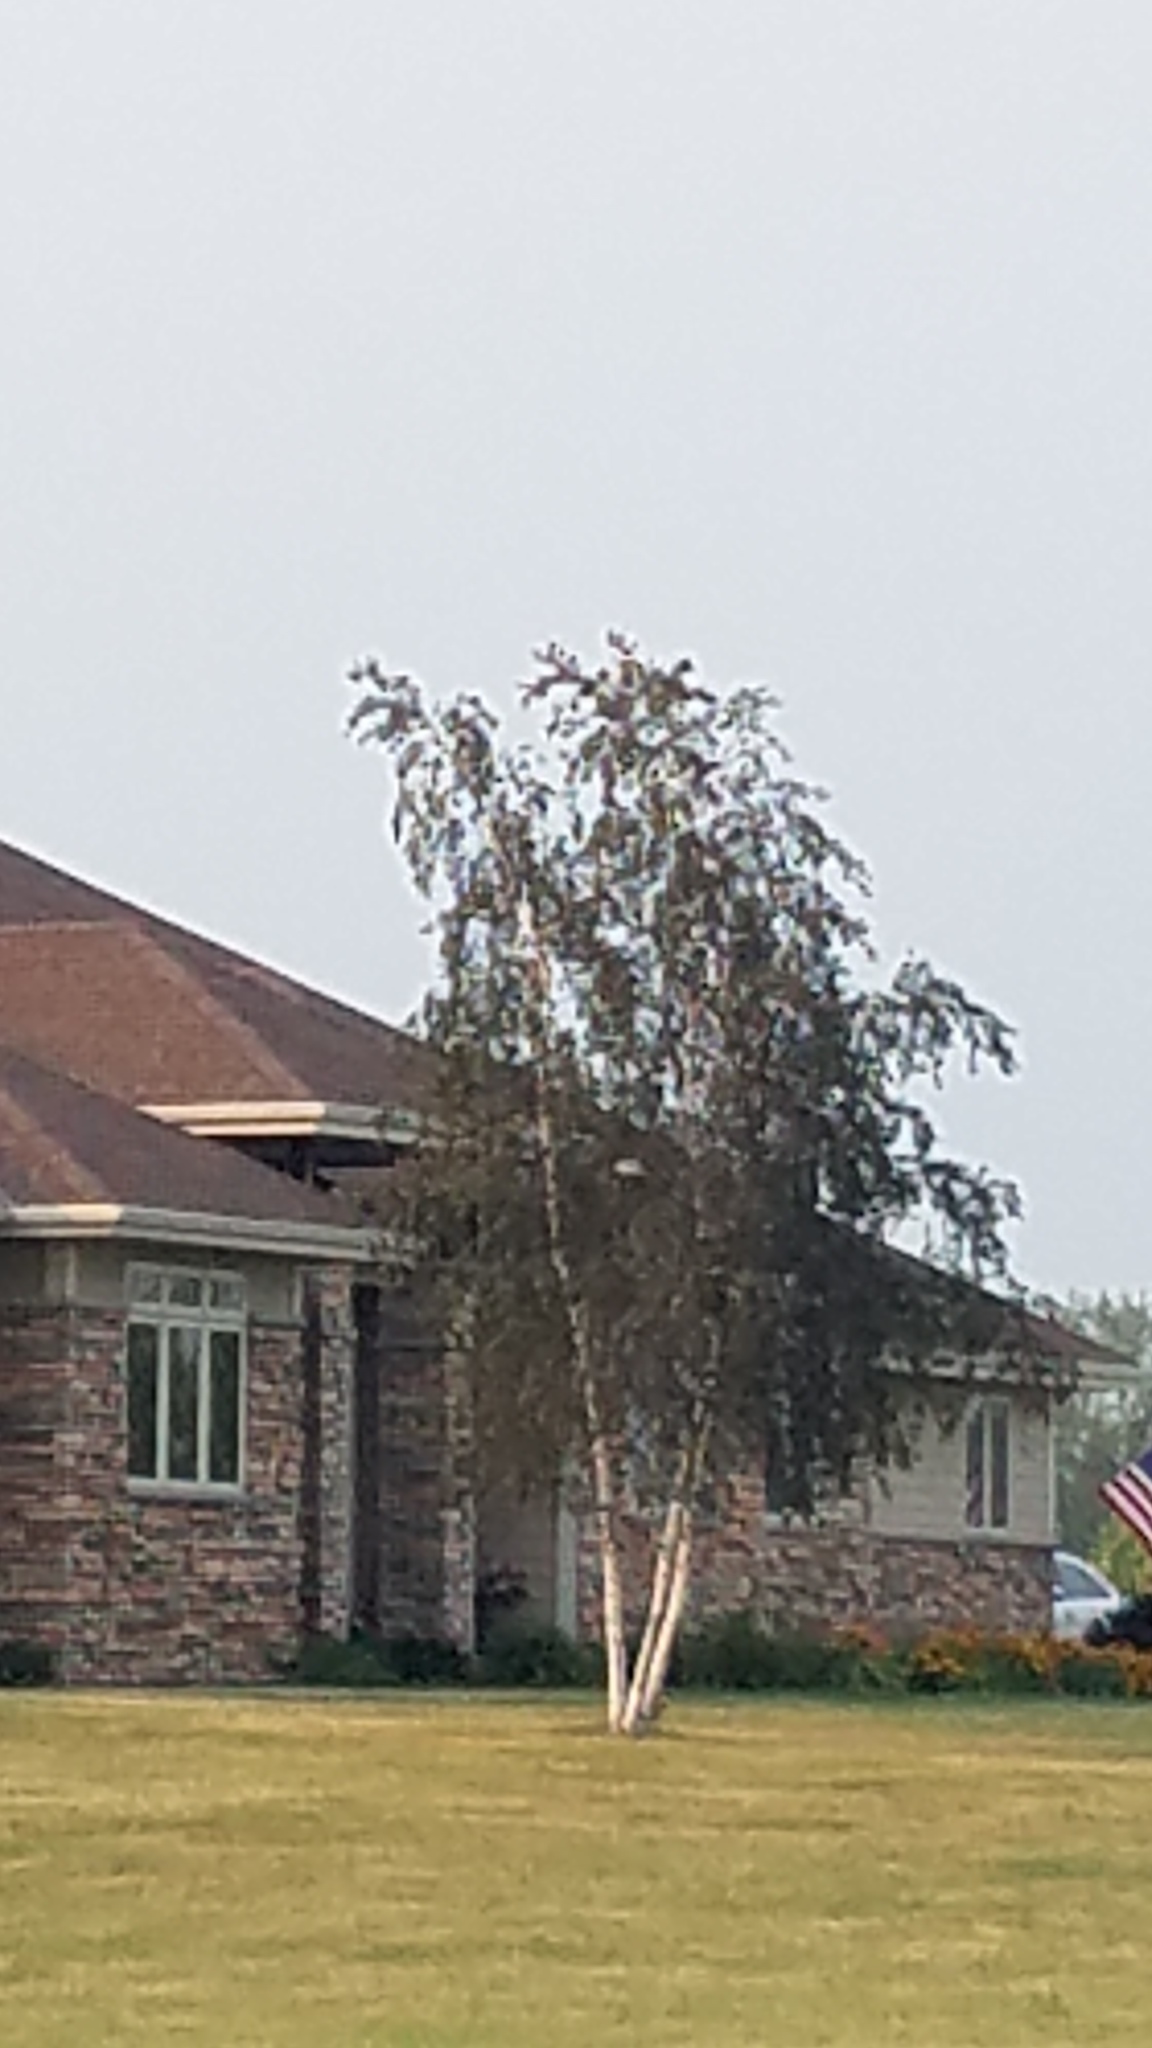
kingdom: Animalia
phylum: Chordata
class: Aves
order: Charadriiformes
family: Charadriidae
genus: Charadrius
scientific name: Charadrius vociferus
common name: Killdeer
